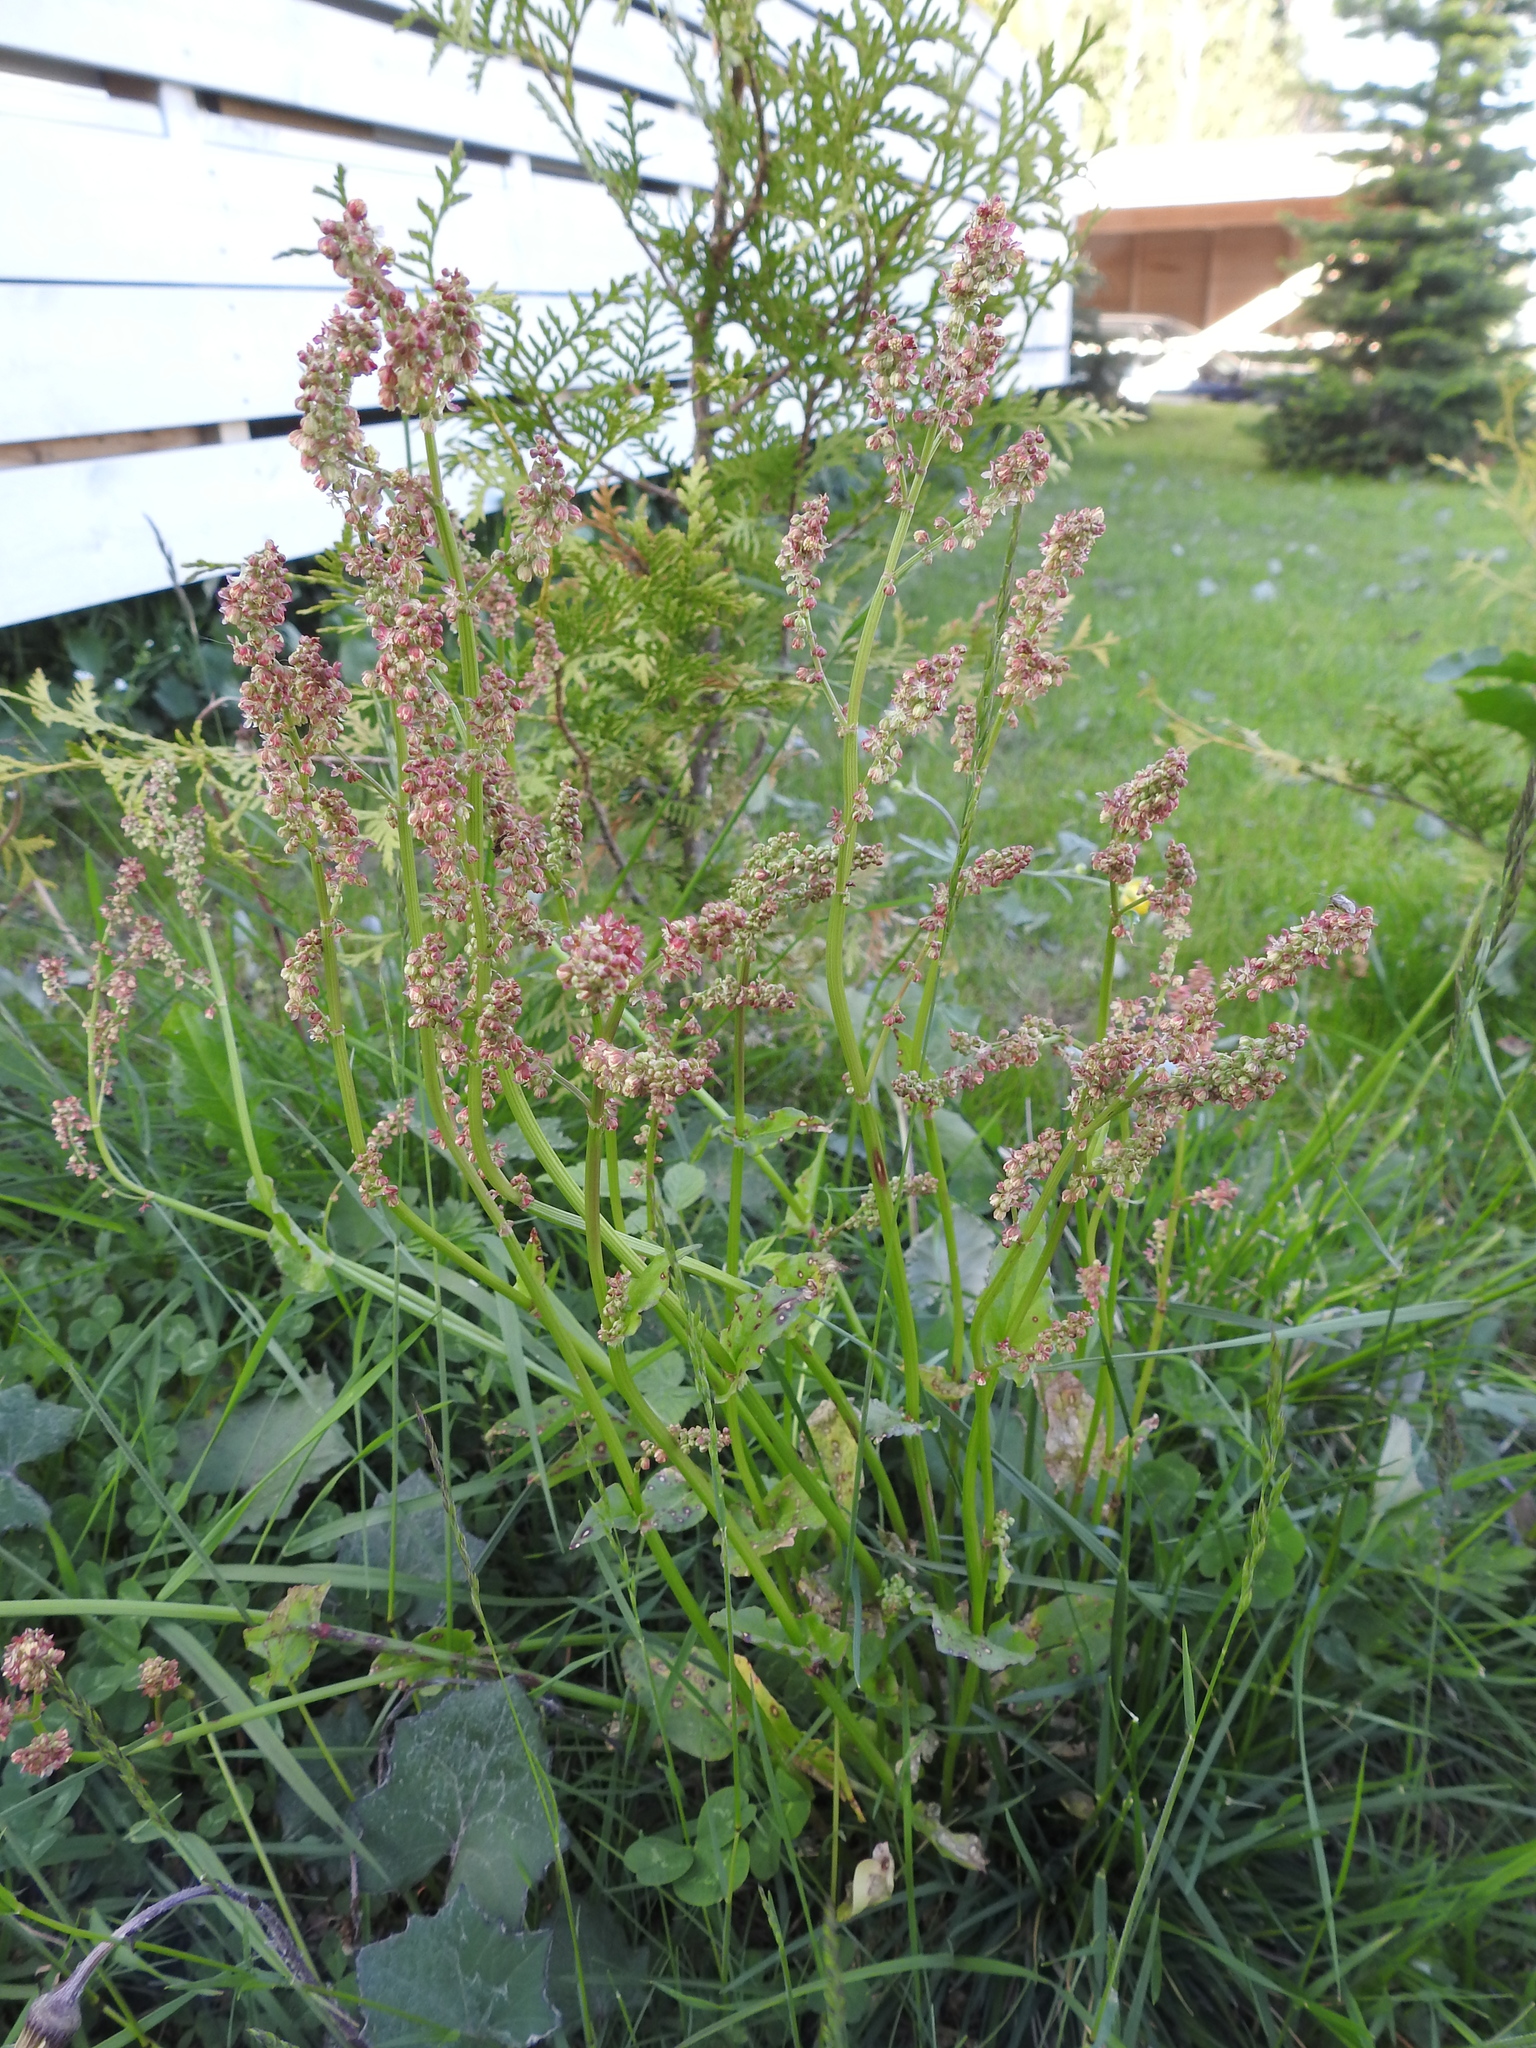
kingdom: Plantae
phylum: Tracheophyta
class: Magnoliopsida
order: Caryophyllales
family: Polygonaceae
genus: Rumex
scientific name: Rumex acetosa
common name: Garden sorrel
